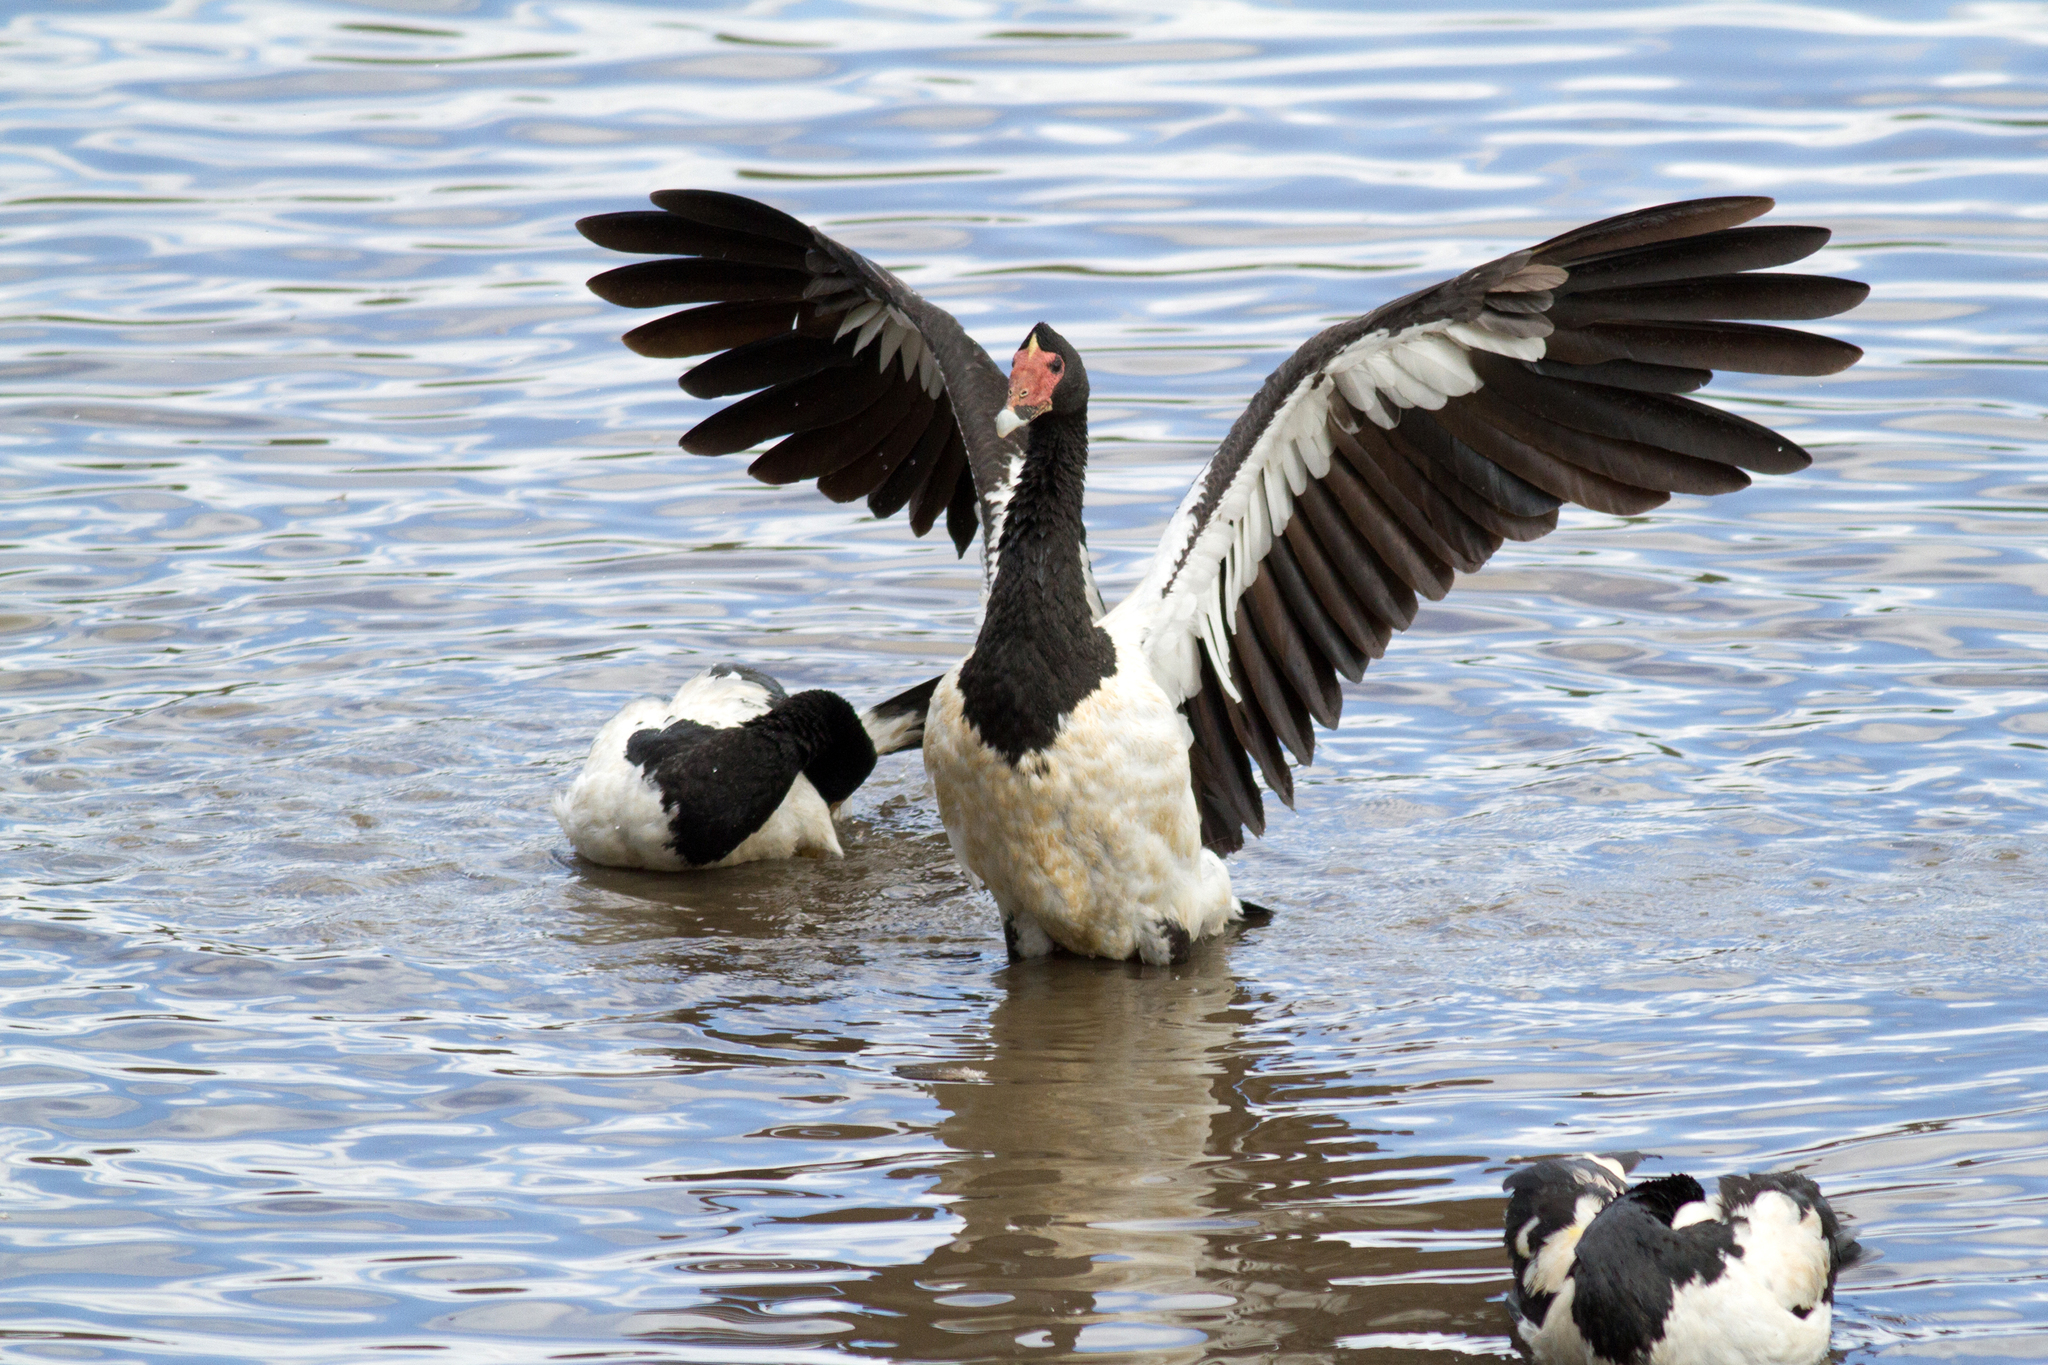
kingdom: Animalia
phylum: Chordata
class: Aves
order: Anseriformes
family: Anseranatidae
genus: Anseranas
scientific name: Anseranas semipalmata
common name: Magpie goose
